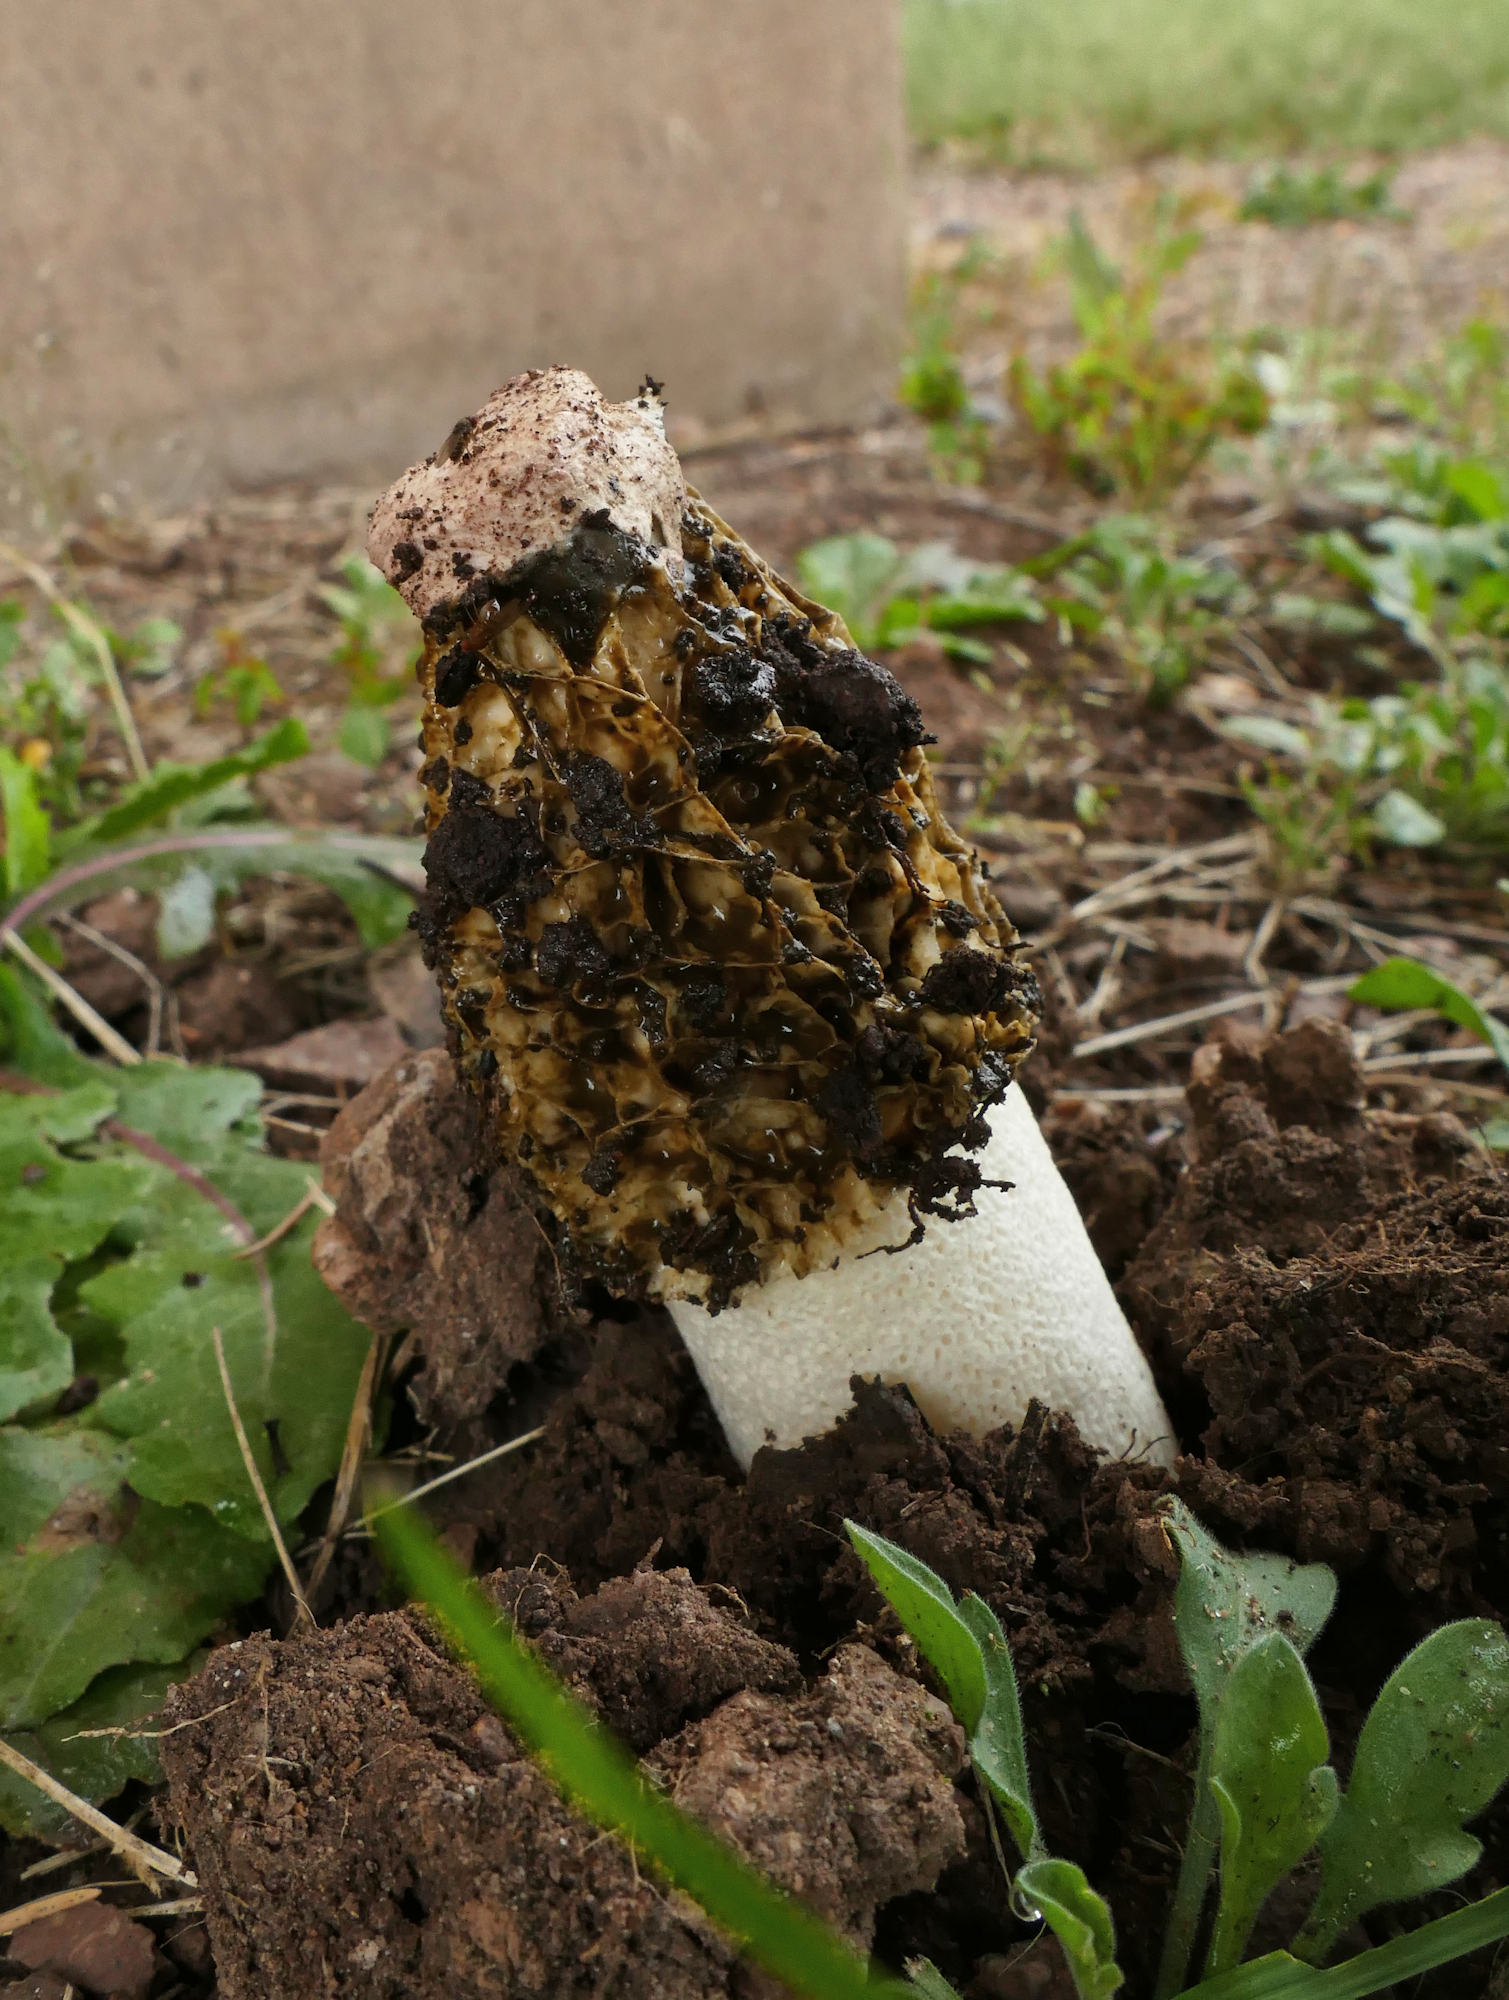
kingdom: Fungi
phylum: Basidiomycota
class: Agaricomycetes
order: Phallales
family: Phallaceae
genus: Phallus
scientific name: Phallus hadriani
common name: Sand stinkhorn
